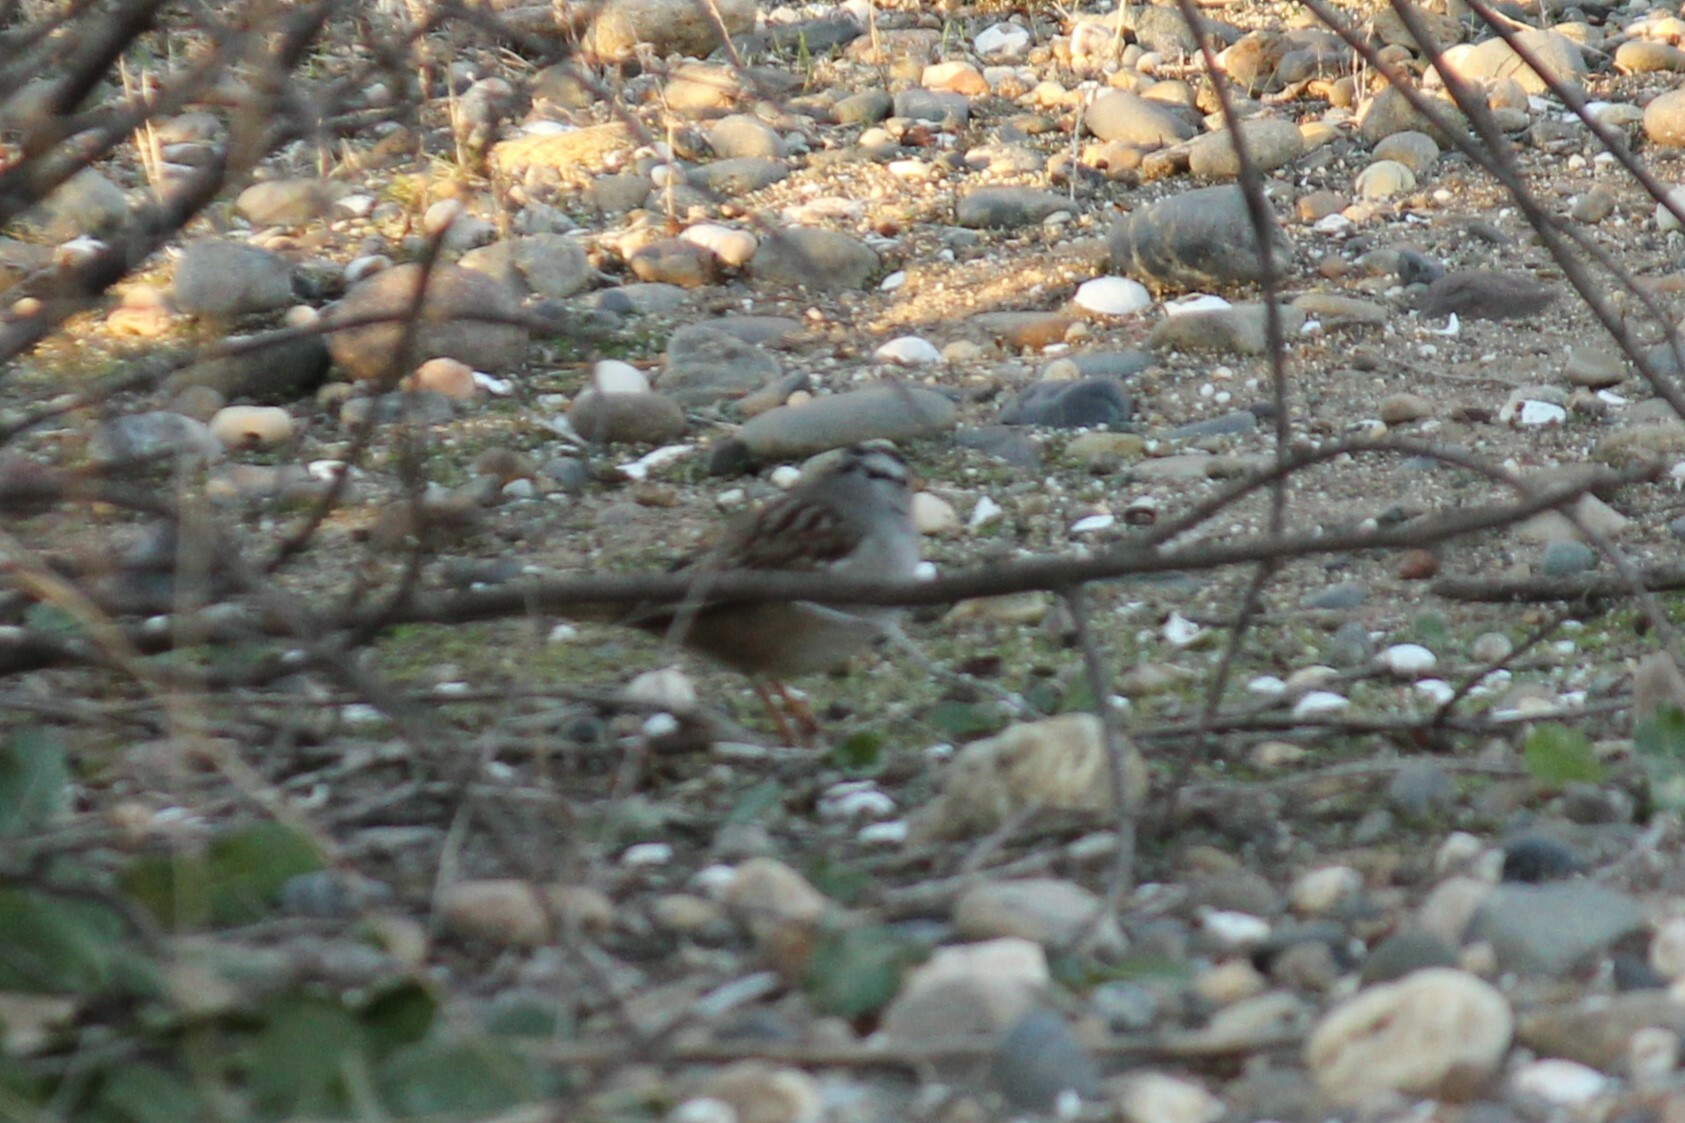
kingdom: Animalia
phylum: Chordata
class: Aves
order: Passeriformes
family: Passerellidae
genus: Zonotrichia
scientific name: Zonotrichia leucophrys
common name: White-crowned sparrow
